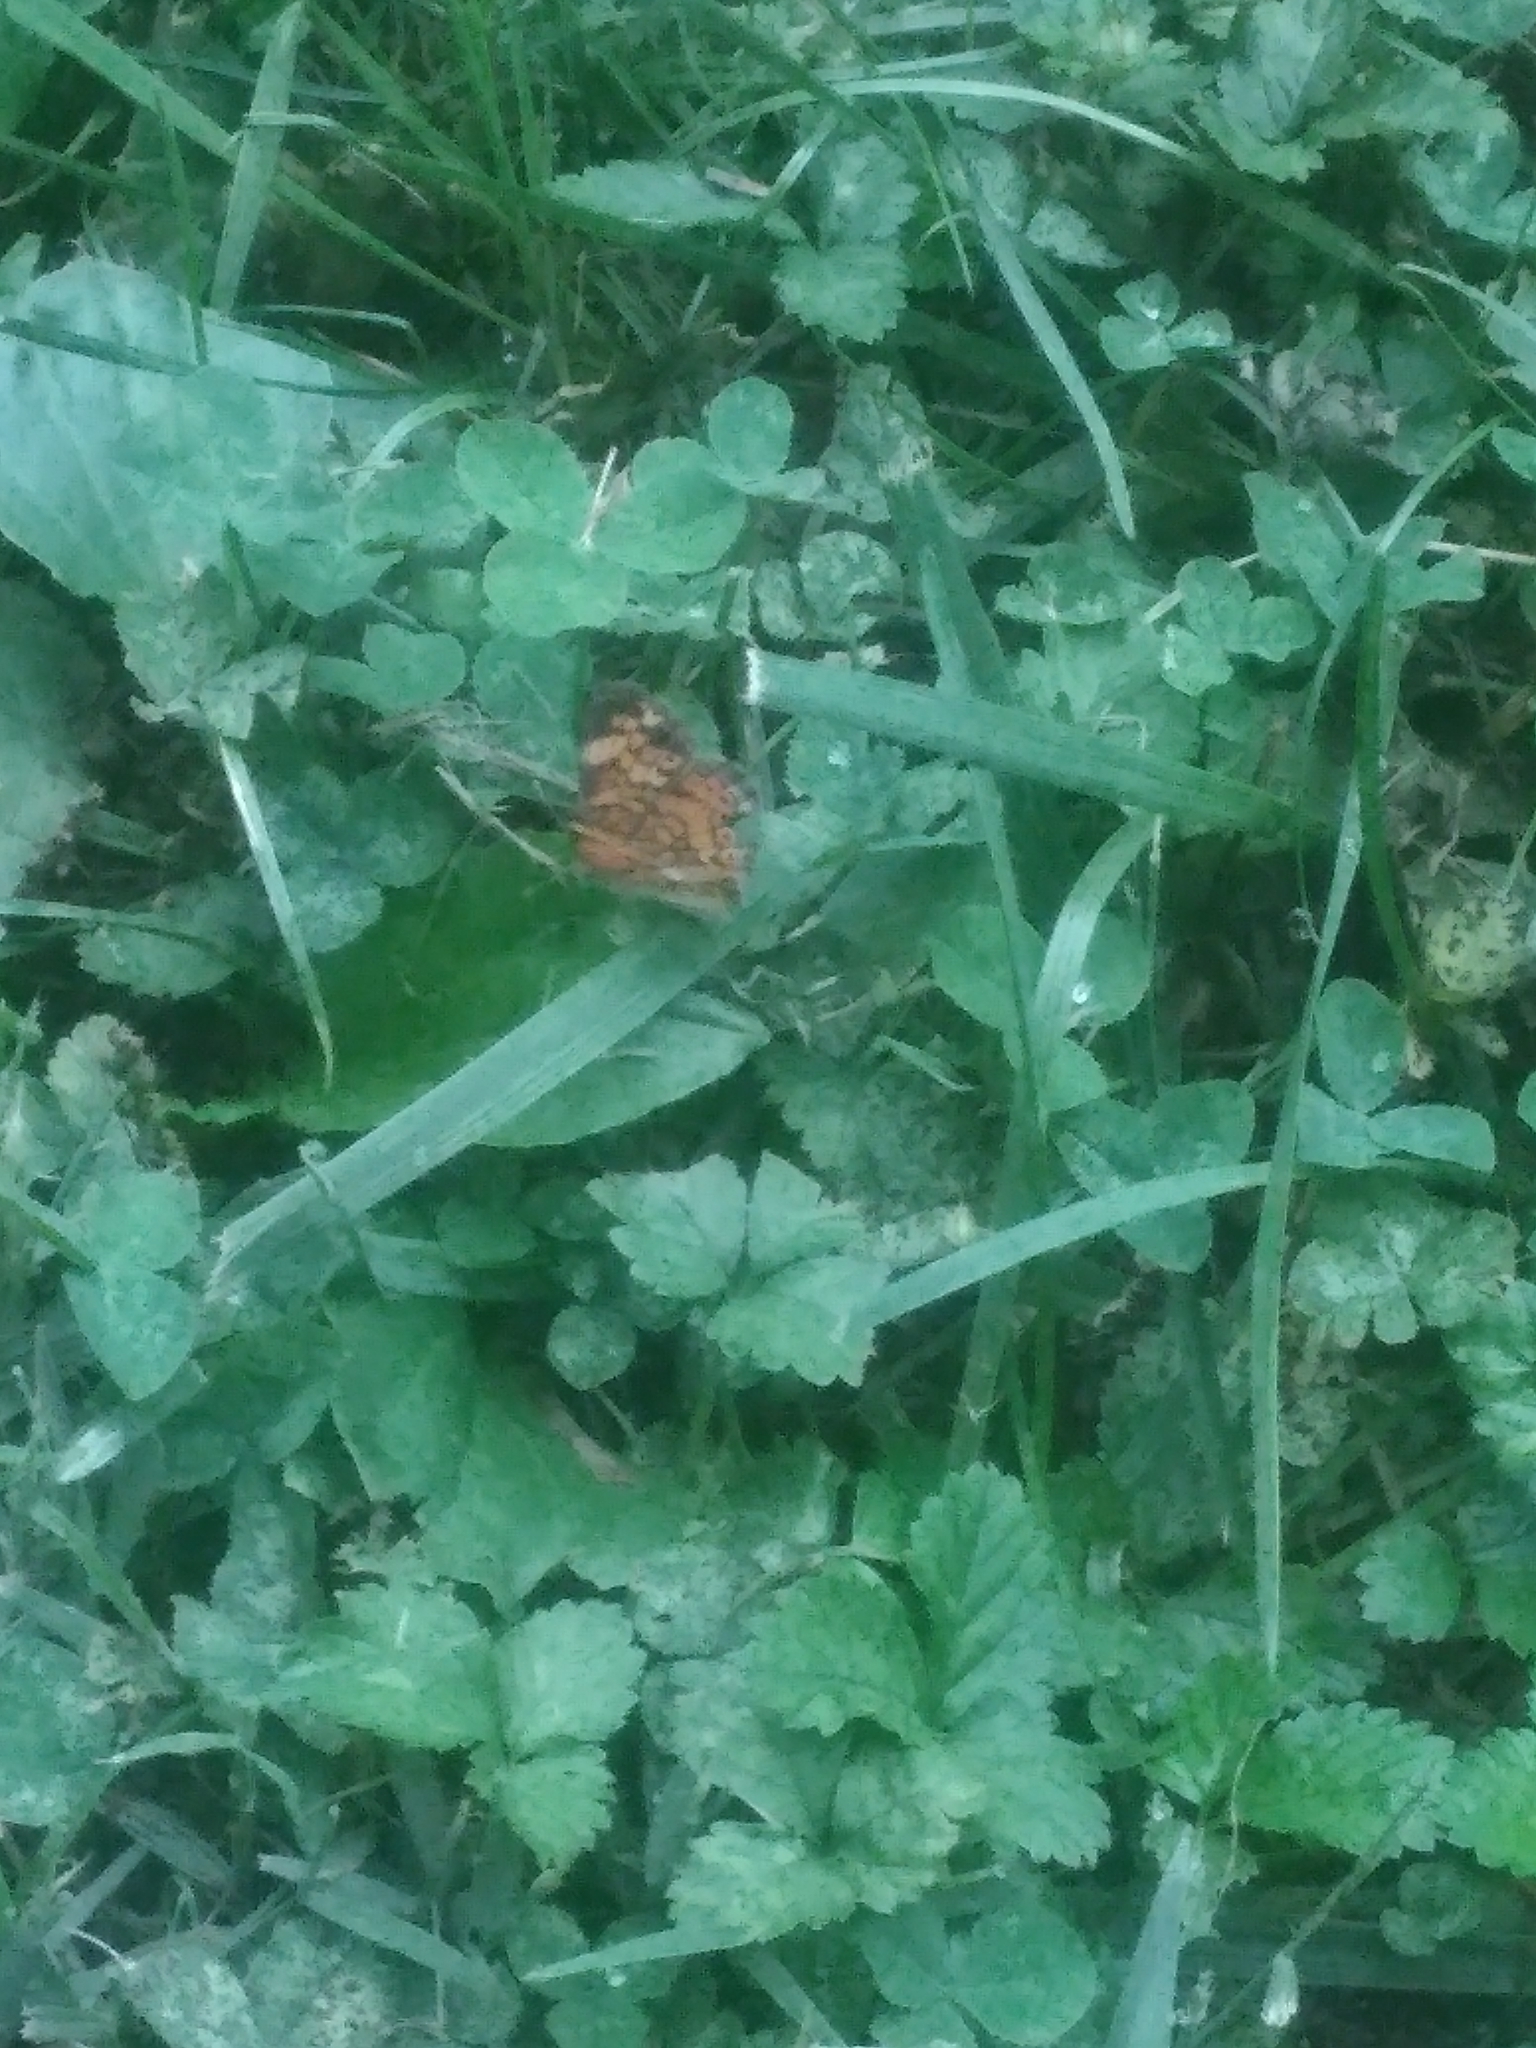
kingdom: Animalia
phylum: Arthropoda
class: Insecta
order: Lepidoptera
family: Nymphalidae
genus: Phyciodes
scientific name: Phyciodes tharos
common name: Pearl crescent
